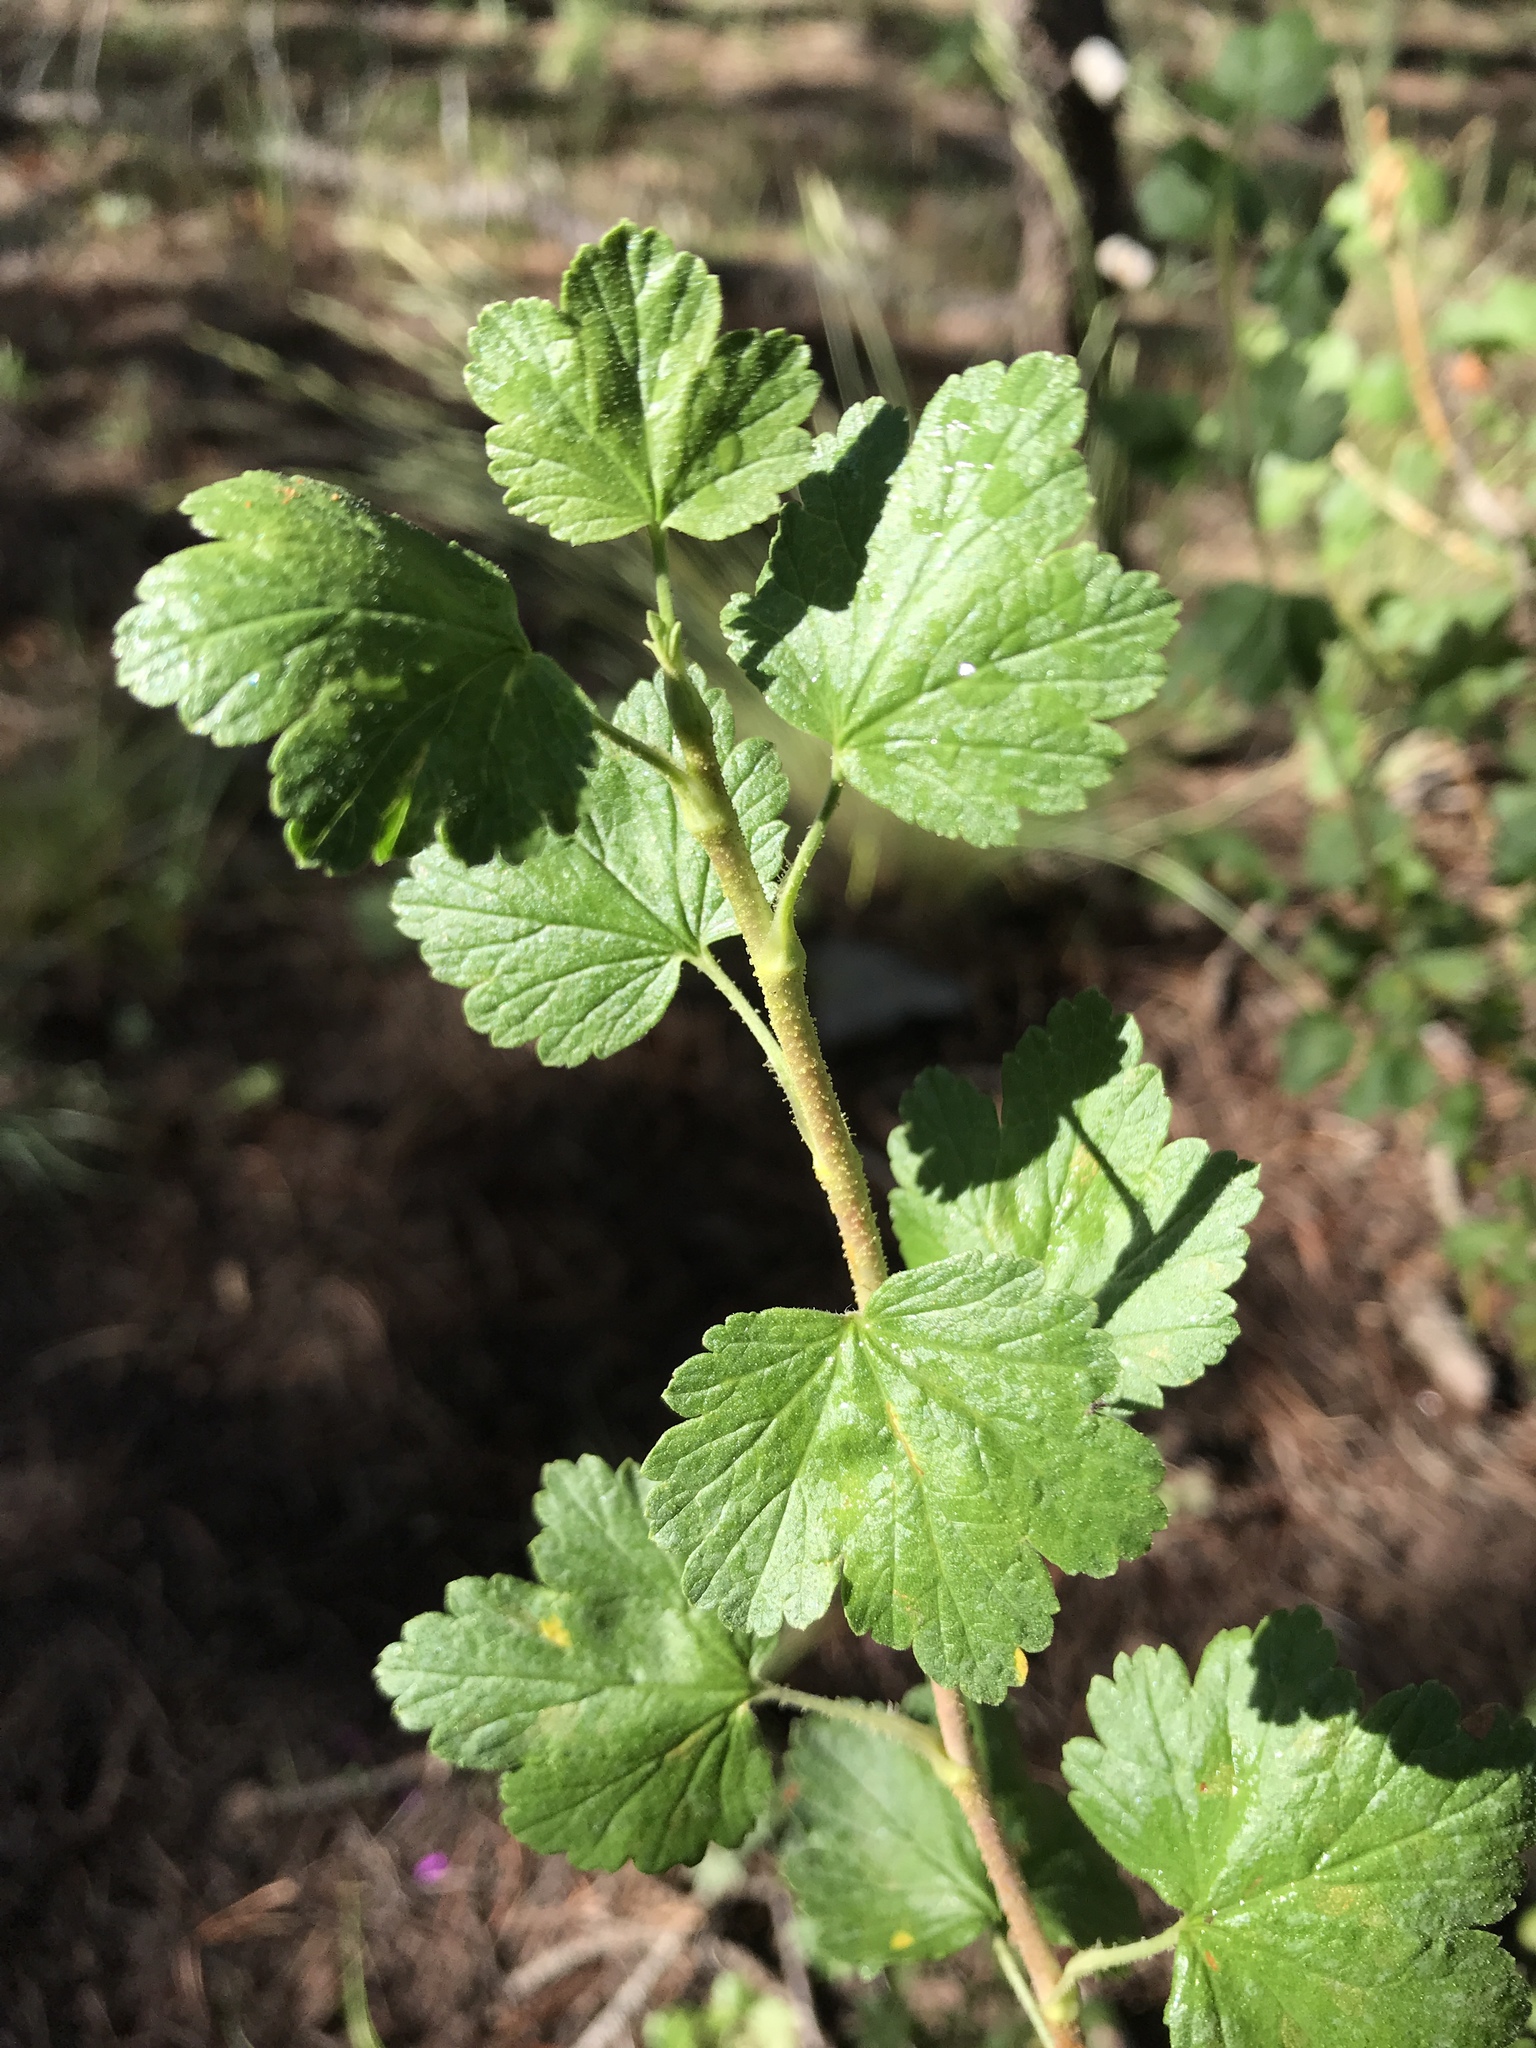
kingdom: Plantae
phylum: Tracheophyta
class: Magnoliopsida
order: Saxifragales
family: Grossulariaceae
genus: Ribes
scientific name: Ribes cereum
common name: Wax currant
